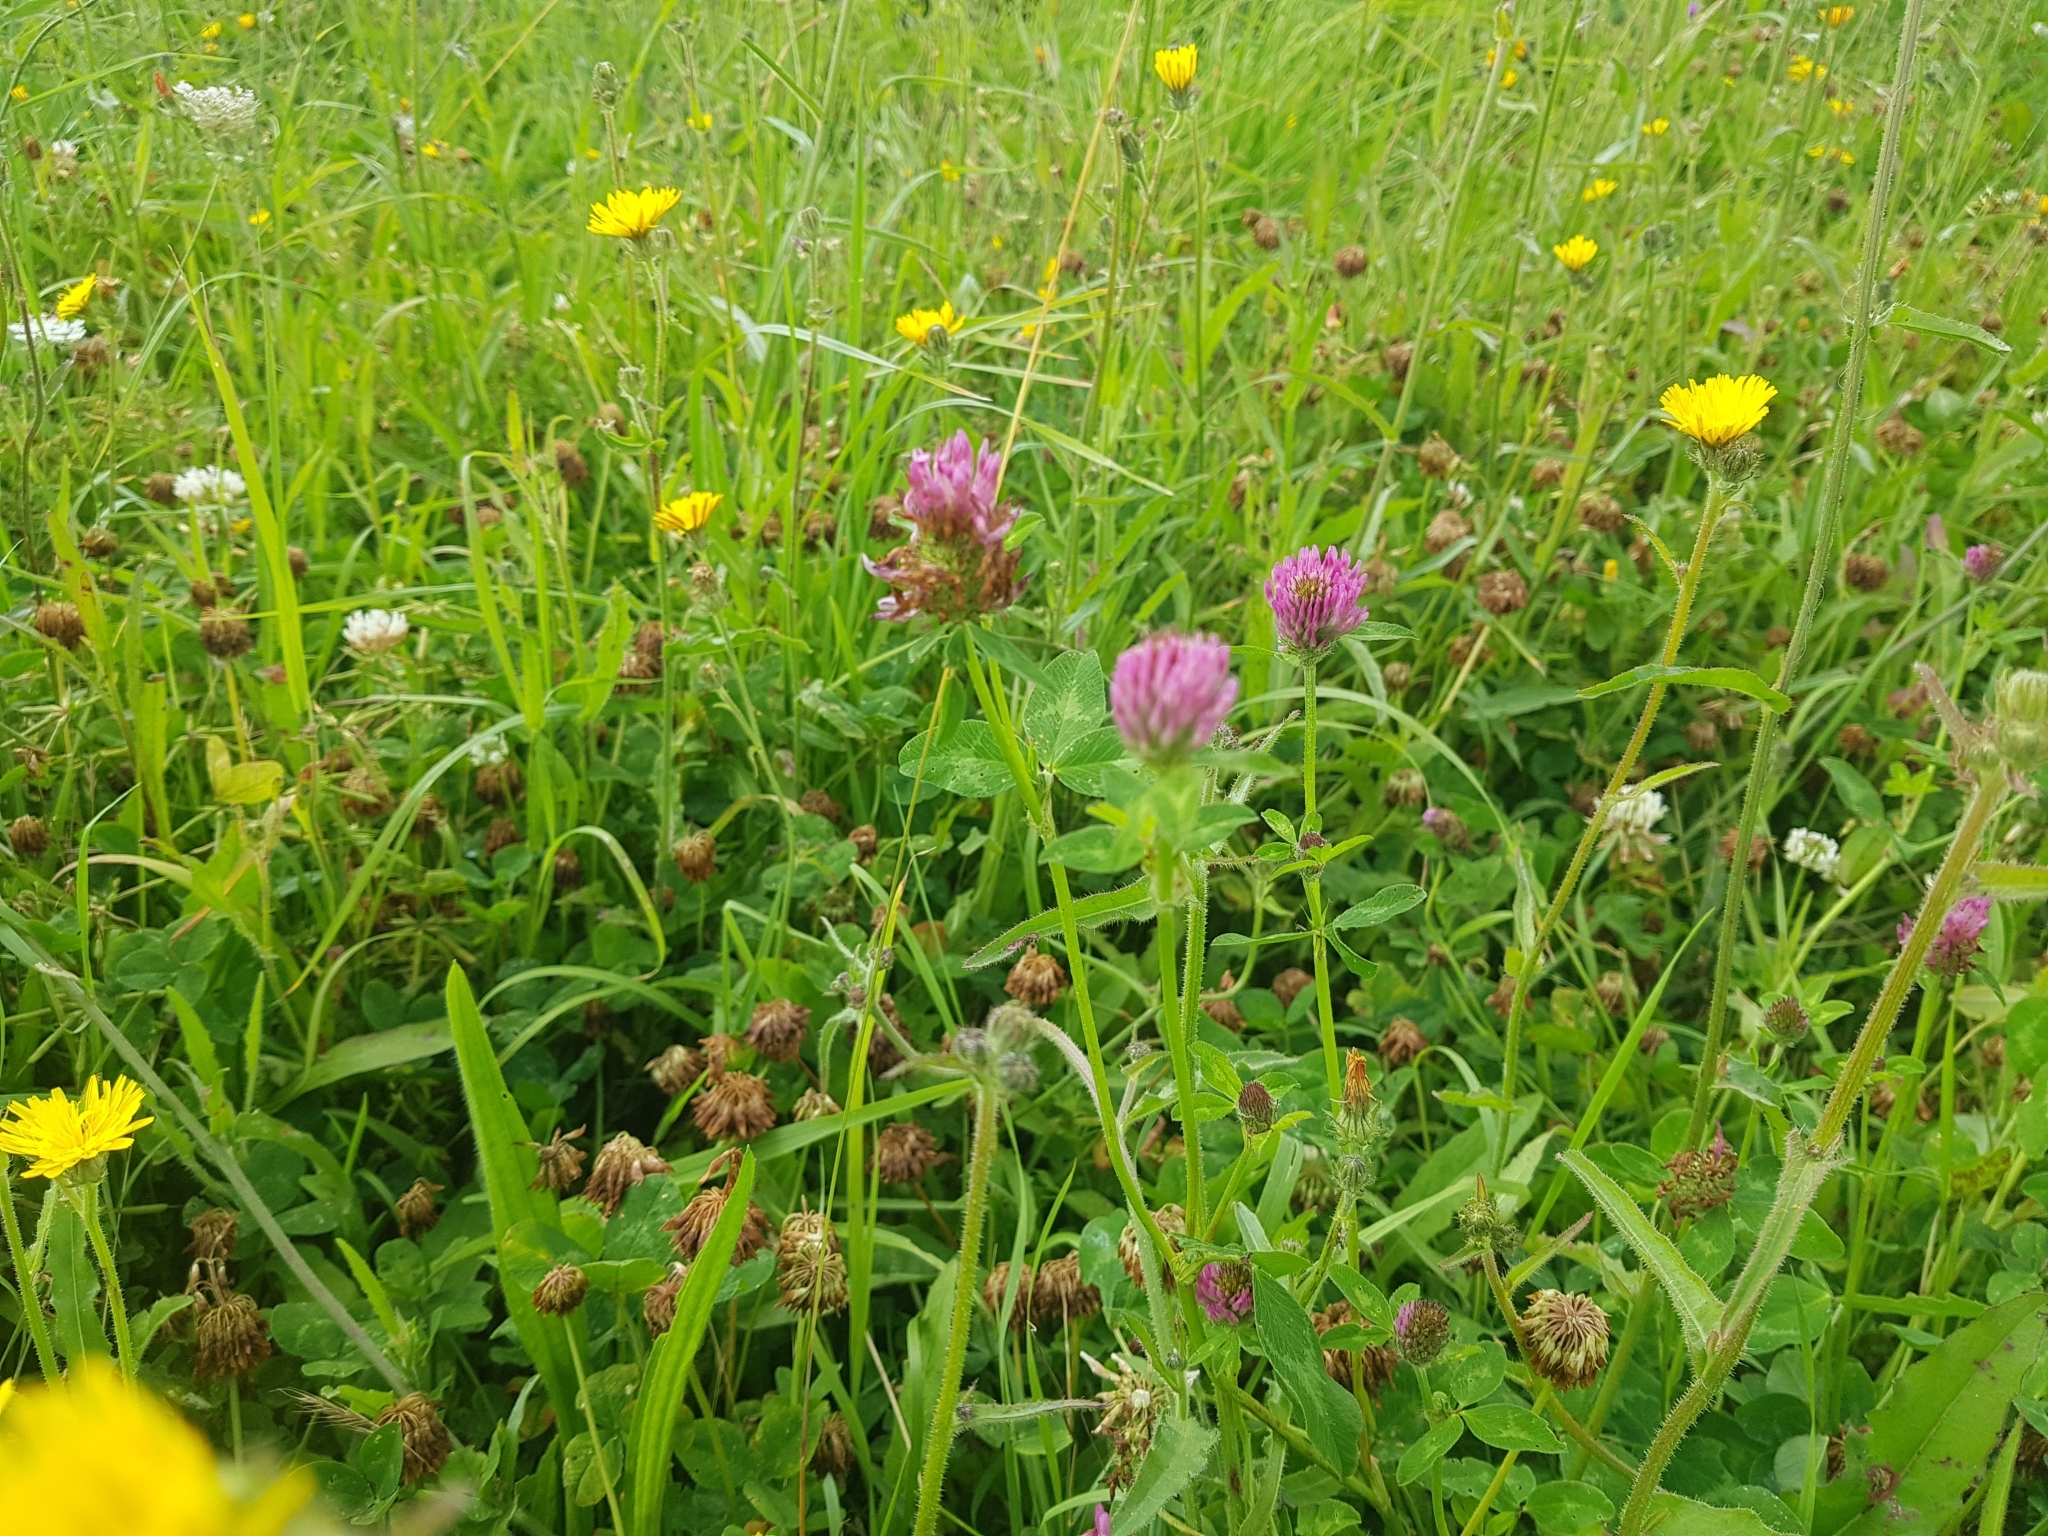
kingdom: Plantae
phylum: Tracheophyta
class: Magnoliopsida
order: Fabales
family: Fabaceae
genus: Trifolium
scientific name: Trifolium pratense
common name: Red clover
